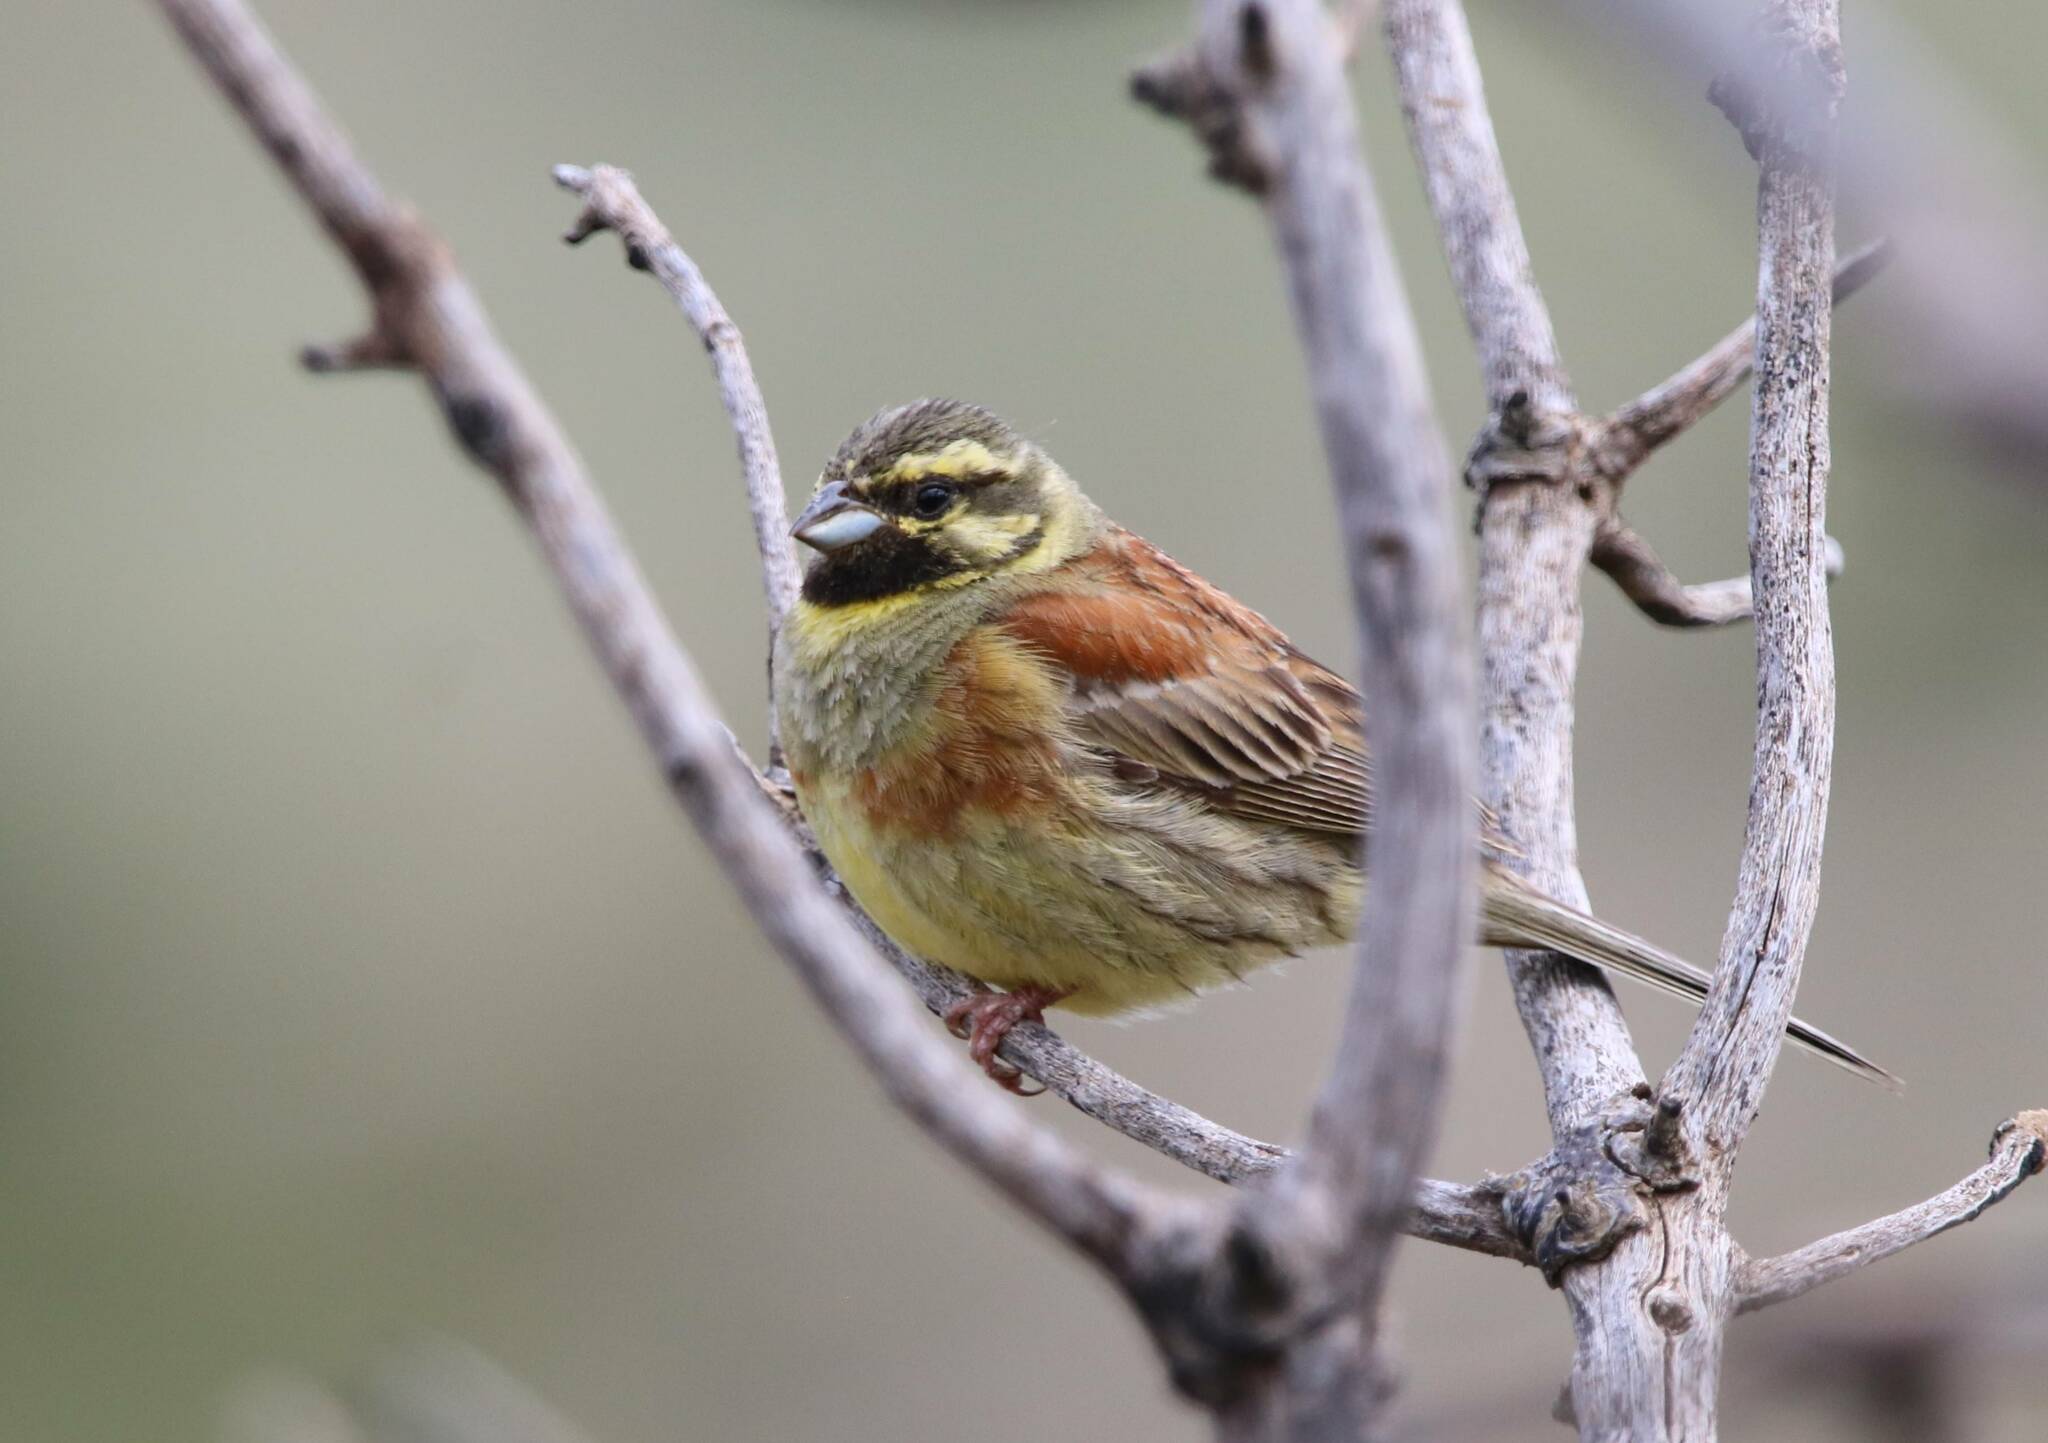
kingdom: Animalia
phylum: Chordata
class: Aves
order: Passeriformes
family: Emberizidae
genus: Emberiza
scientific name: Emberiza cirlus
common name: Cirl bunting
